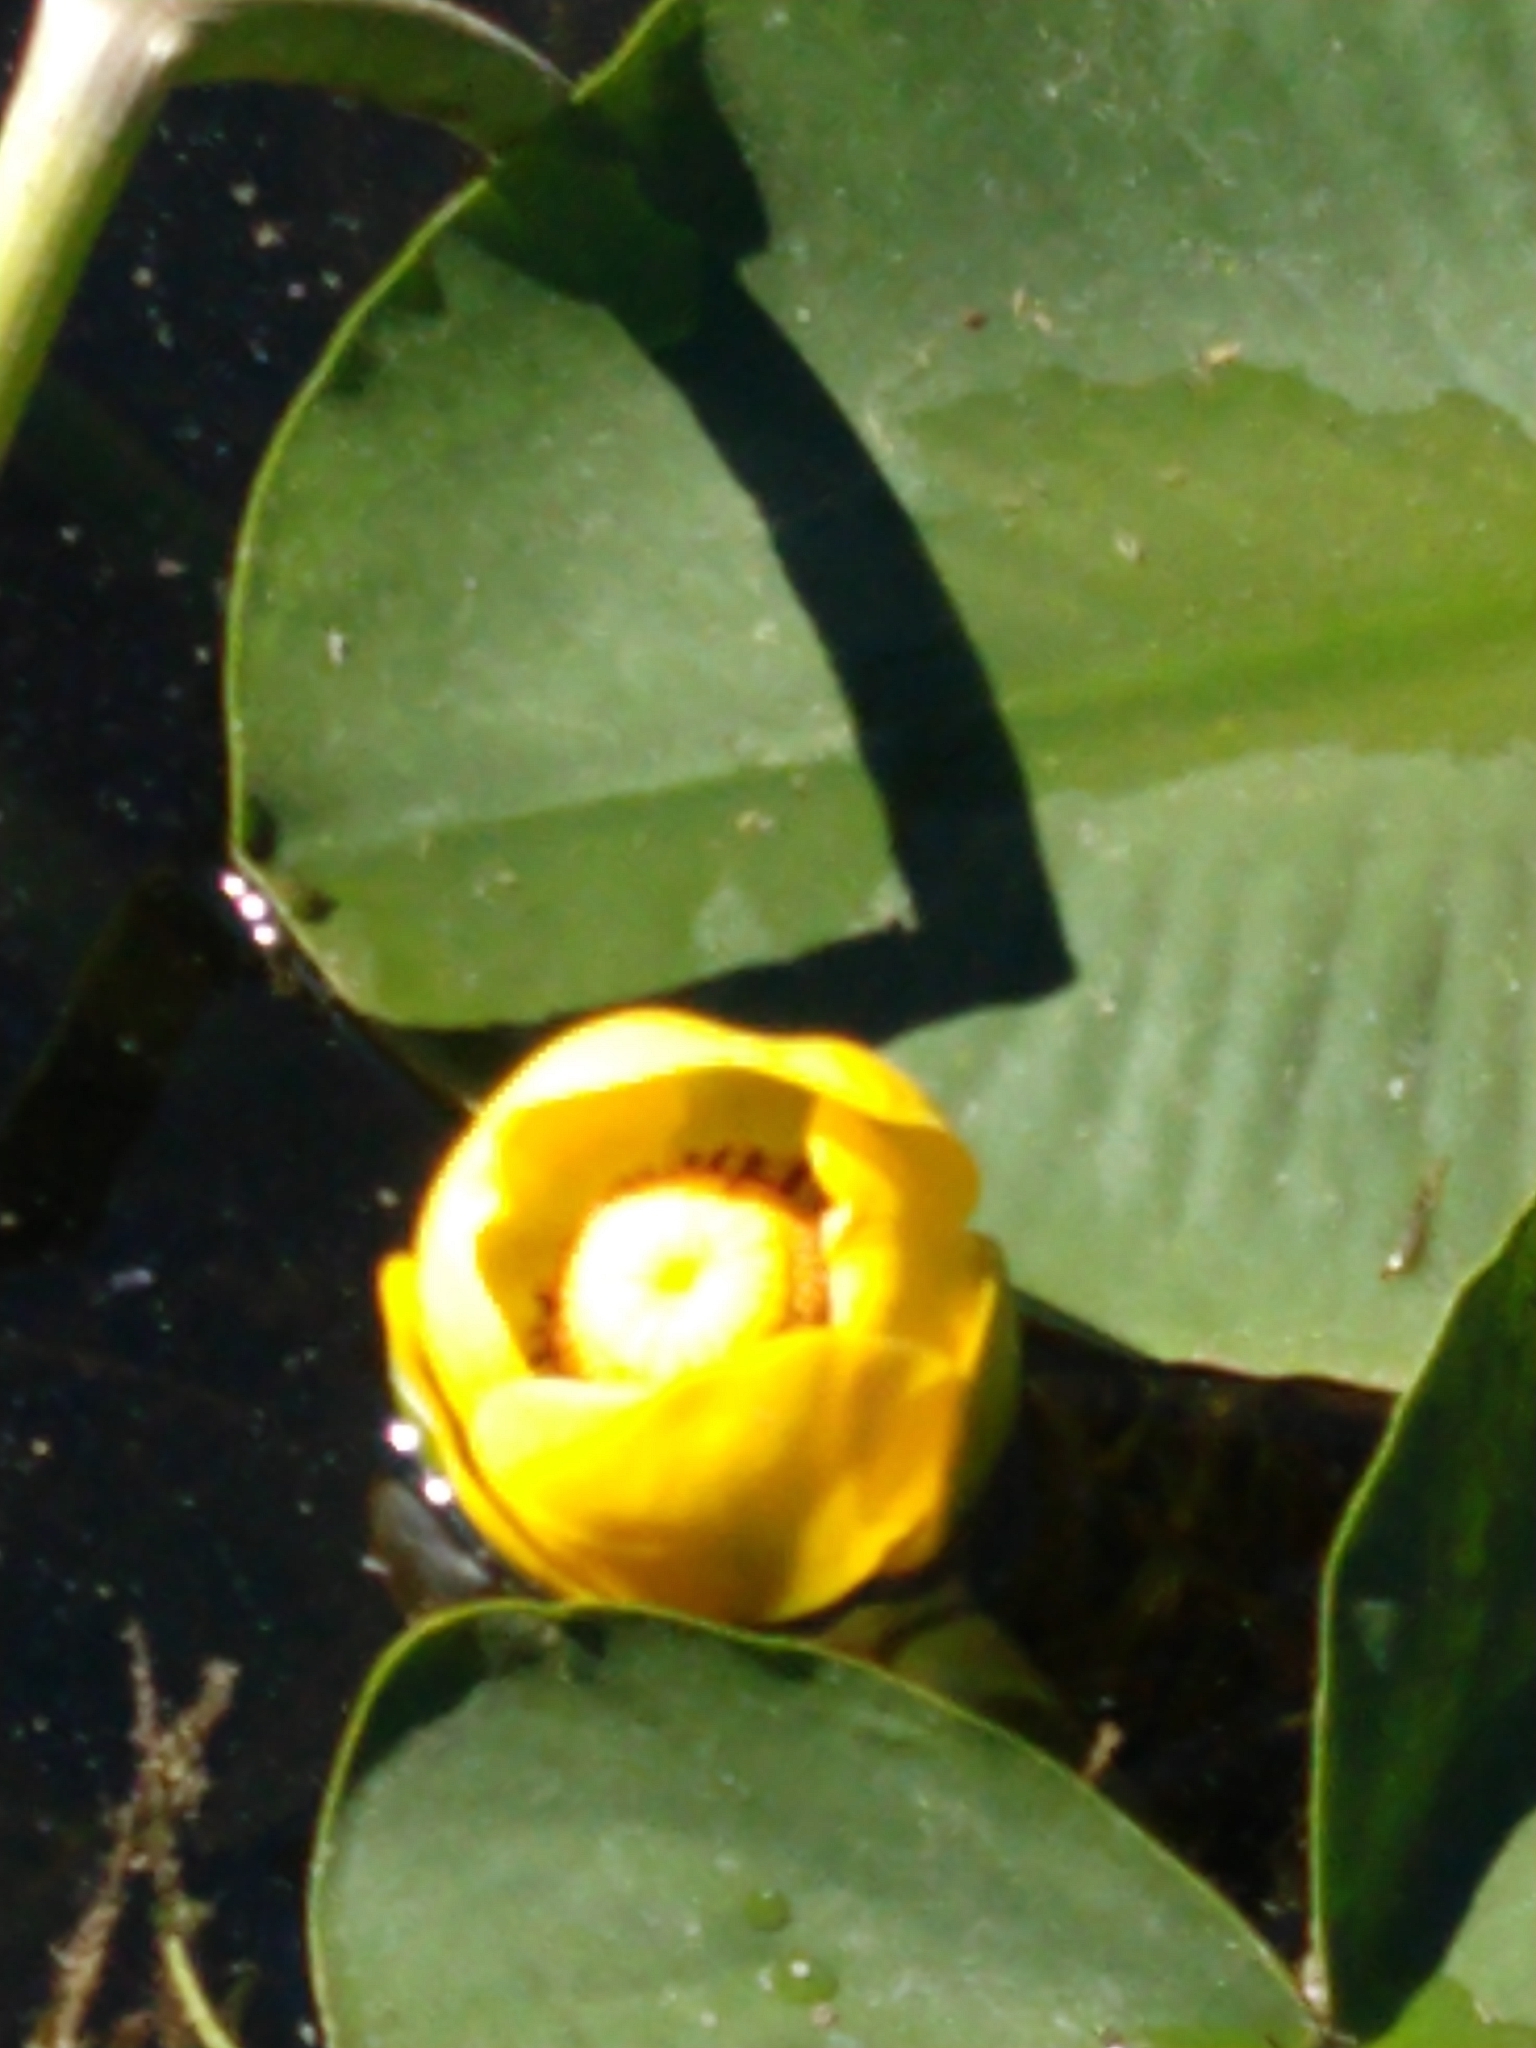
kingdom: Plantae
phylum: Tracheophyta
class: Magnoliopsida
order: Nymphaeales
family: Nymphaeaceae
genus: Nuphar
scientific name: Nuphar polysepala
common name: Rocky mountain cow-lily
